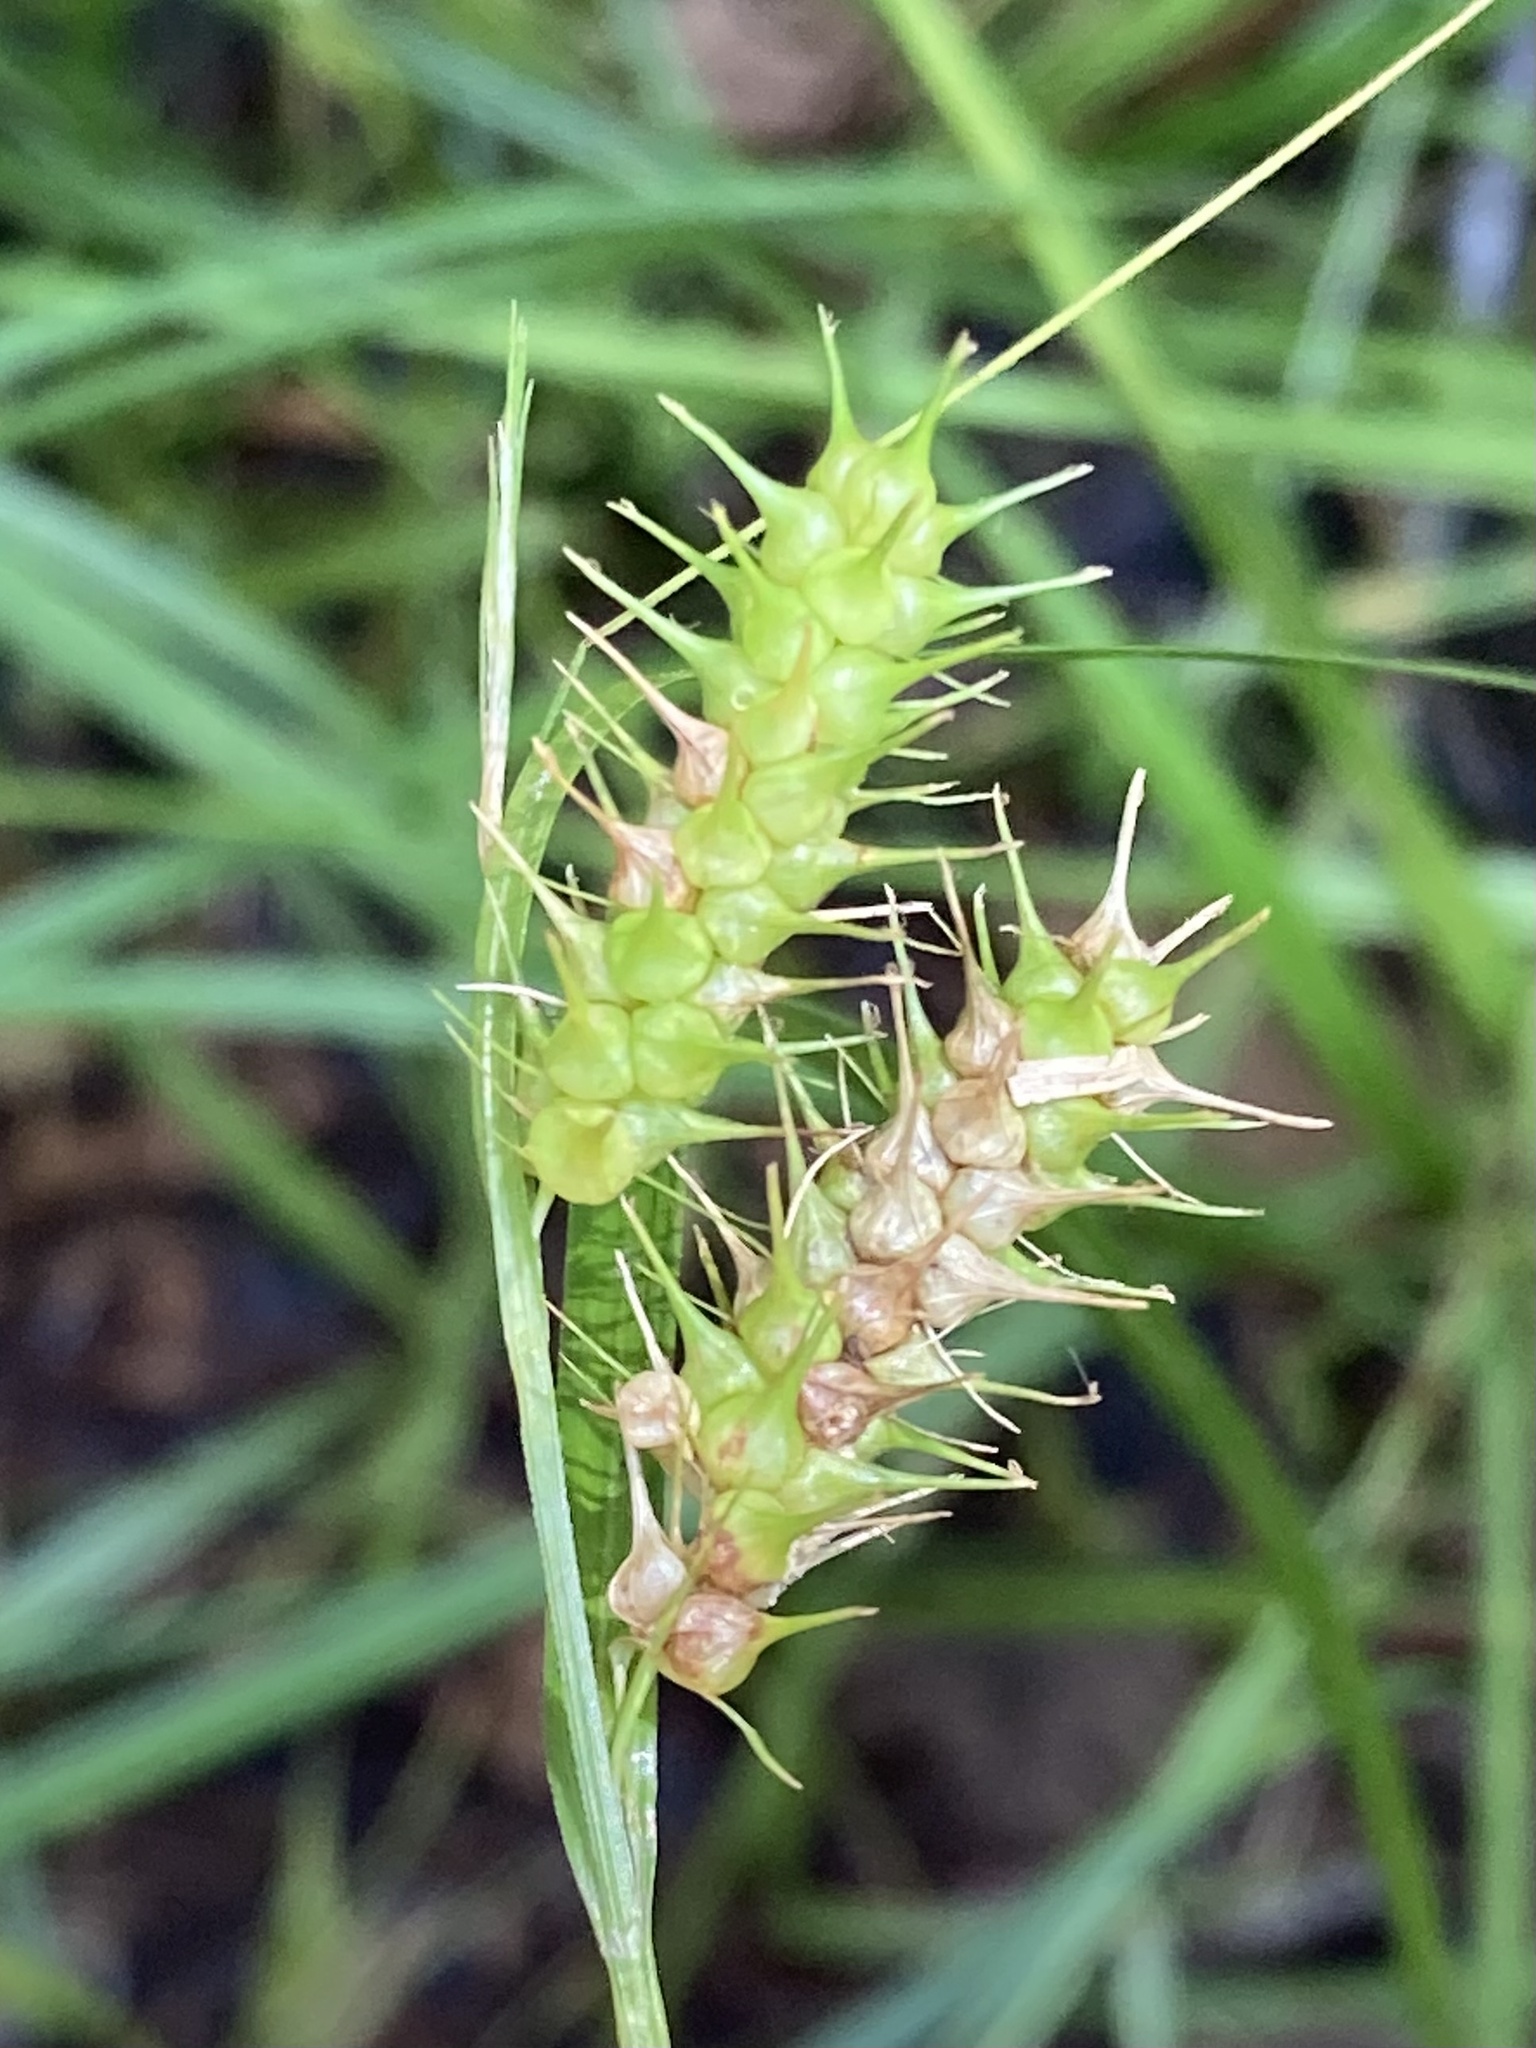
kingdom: Plantae
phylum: Tracheophyta
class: Liliopsida
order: Poales
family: Cyperaceae
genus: Carex
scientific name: Carex baileyi
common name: Bailey's sedge
